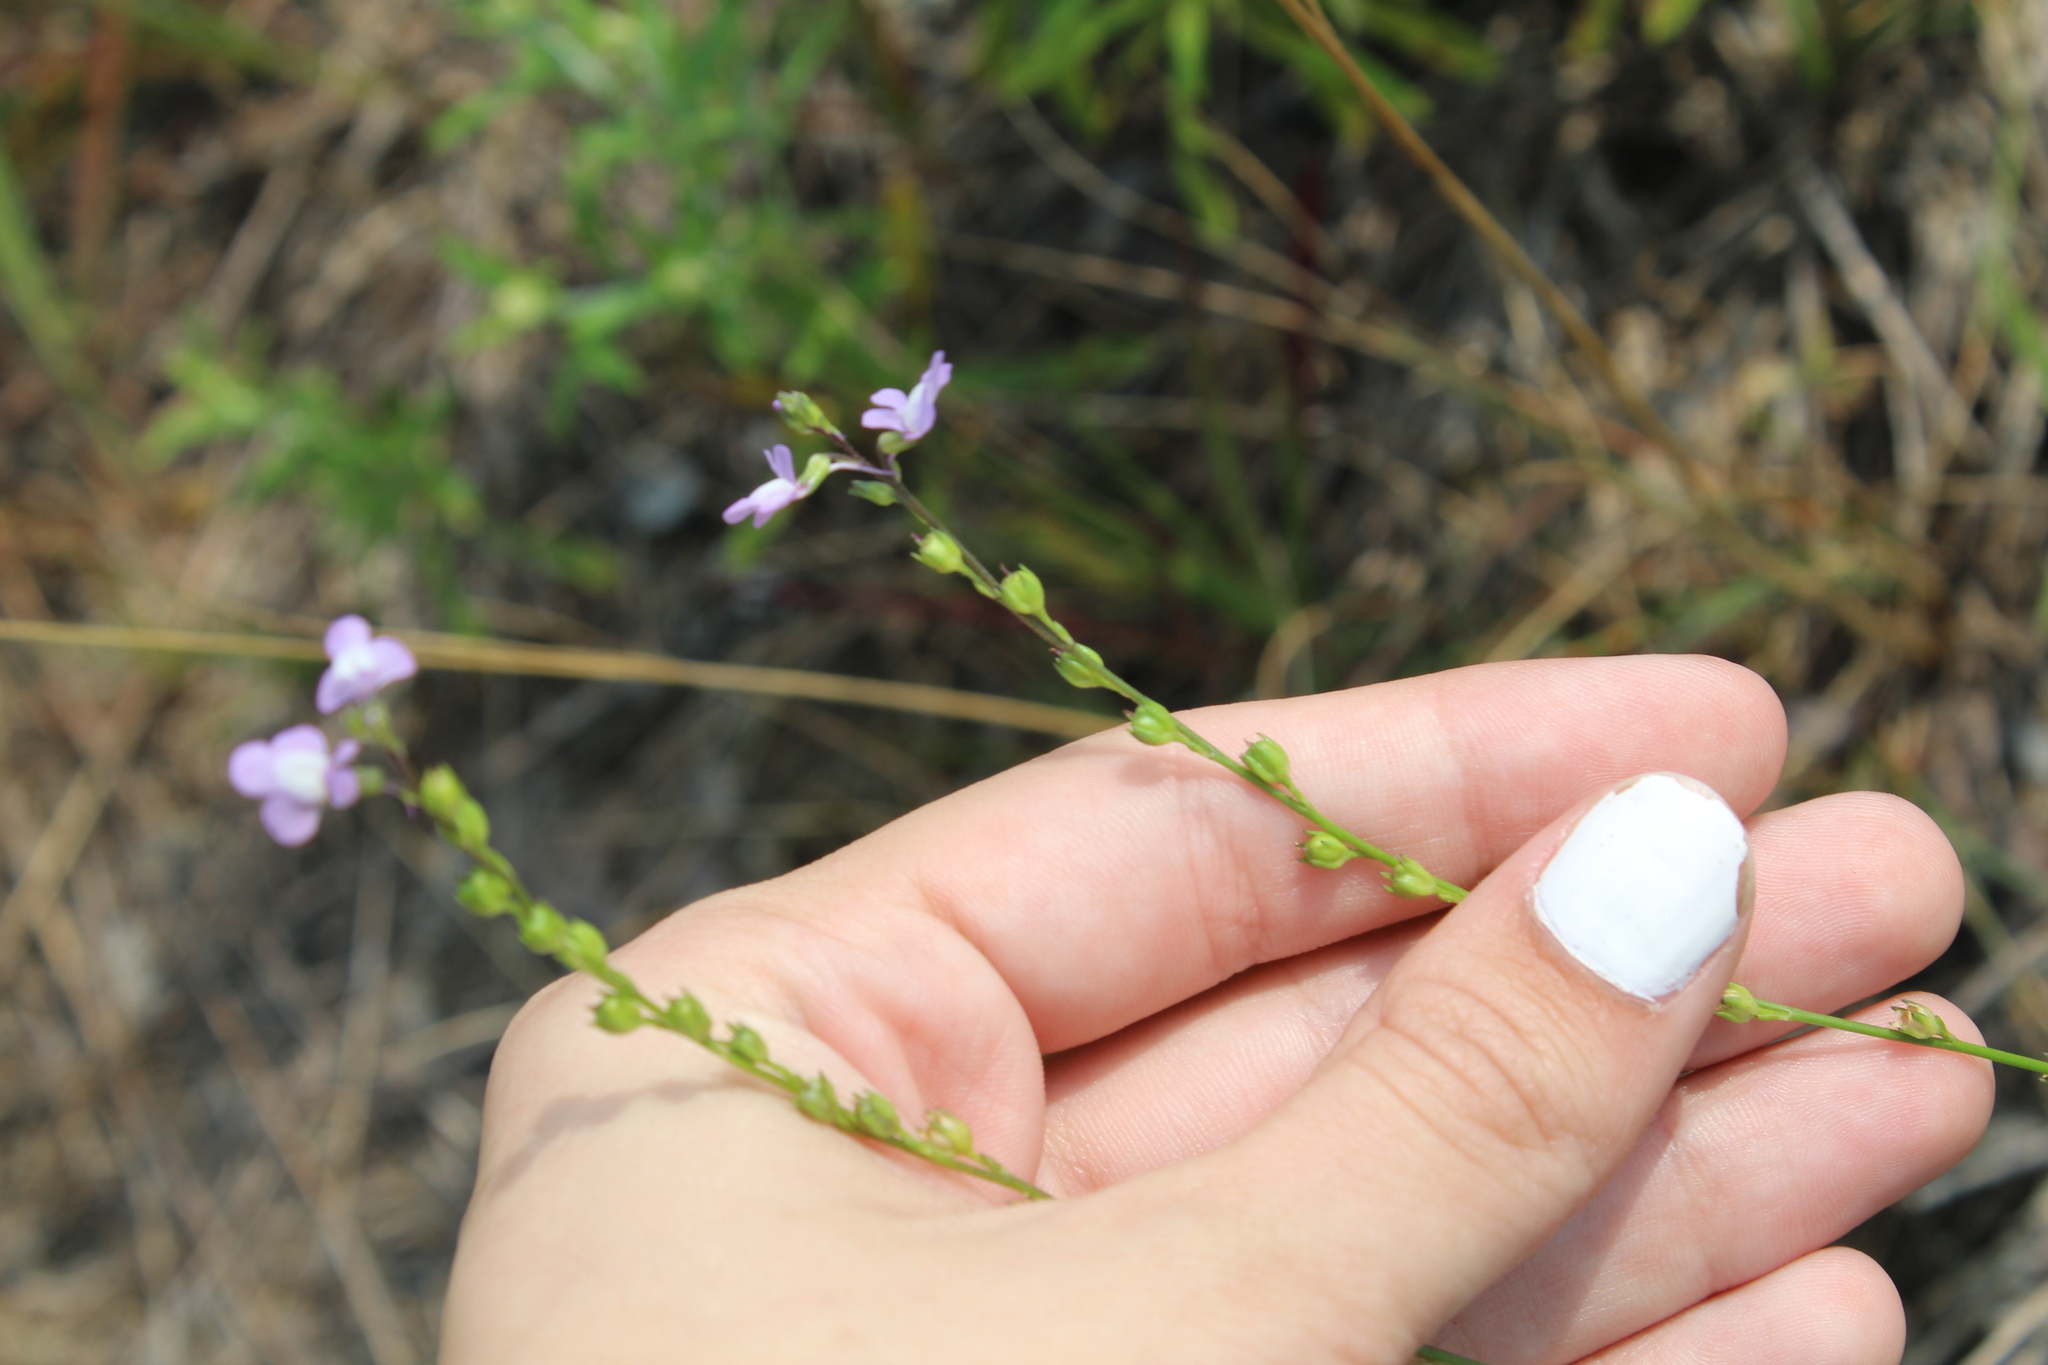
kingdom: Plantae
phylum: Tracheophyta
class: Magnoliopsida
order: Lamiales
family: Plantaginaceae
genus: Nuttallanthus
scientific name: Nuttallanthus canadensis
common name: Blue toadflax
